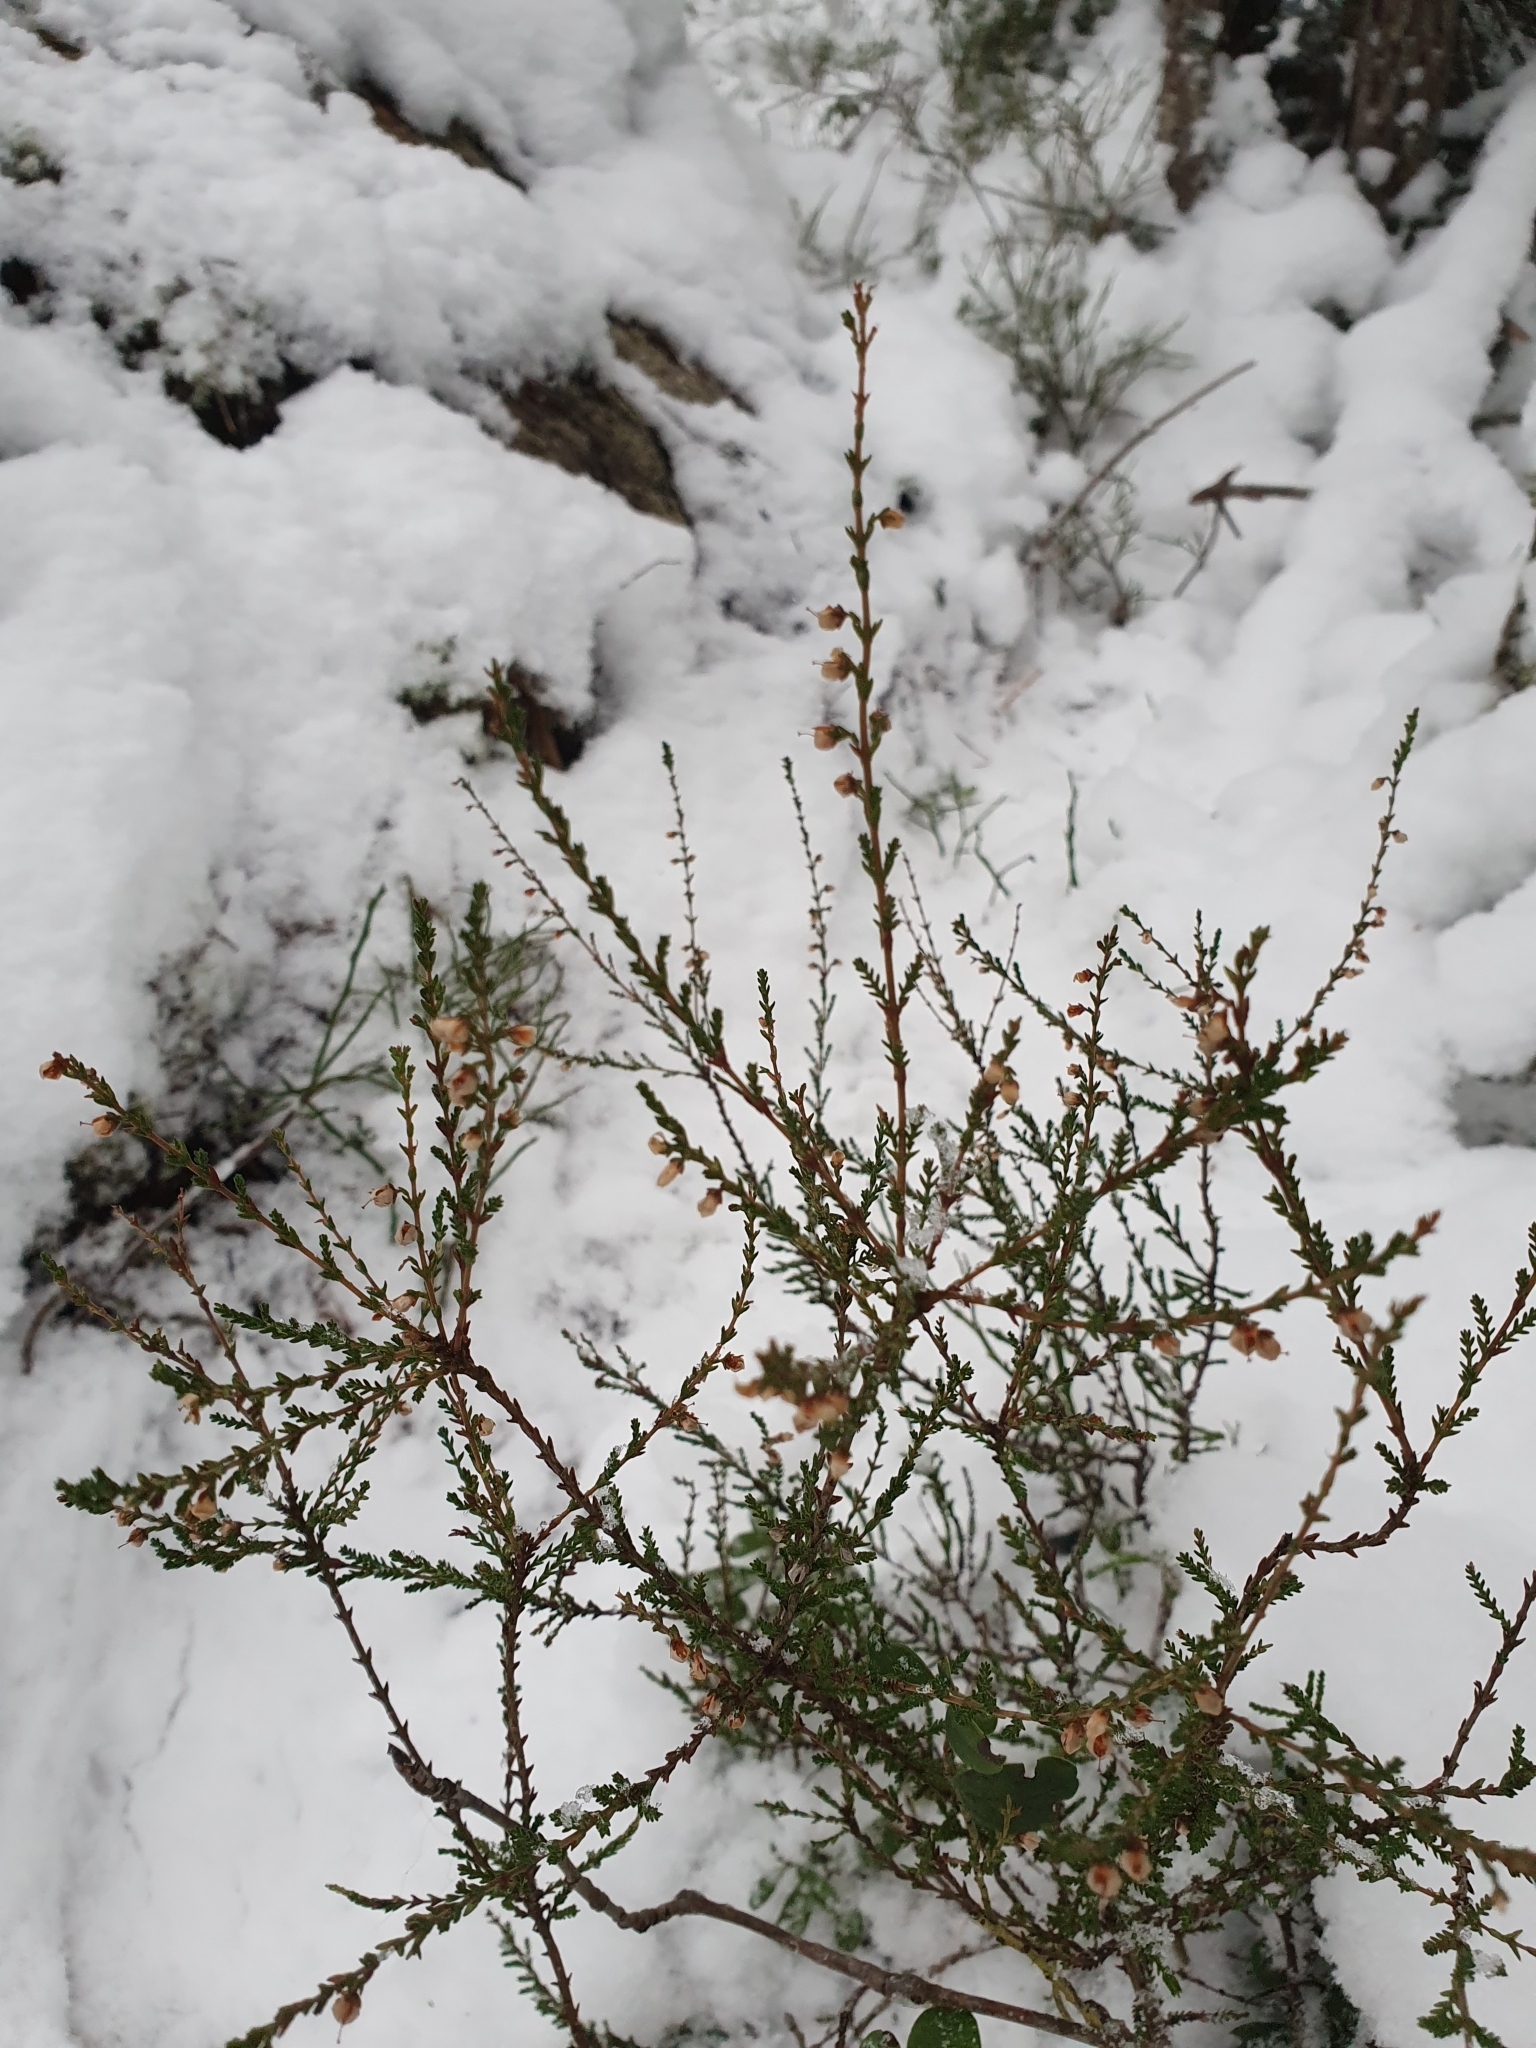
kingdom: Plantae
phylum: Tracheophyta
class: Magnoliopsida
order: Ericales
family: Ericaceae
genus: Calluna
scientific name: Calluna vulgaris
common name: Heather
